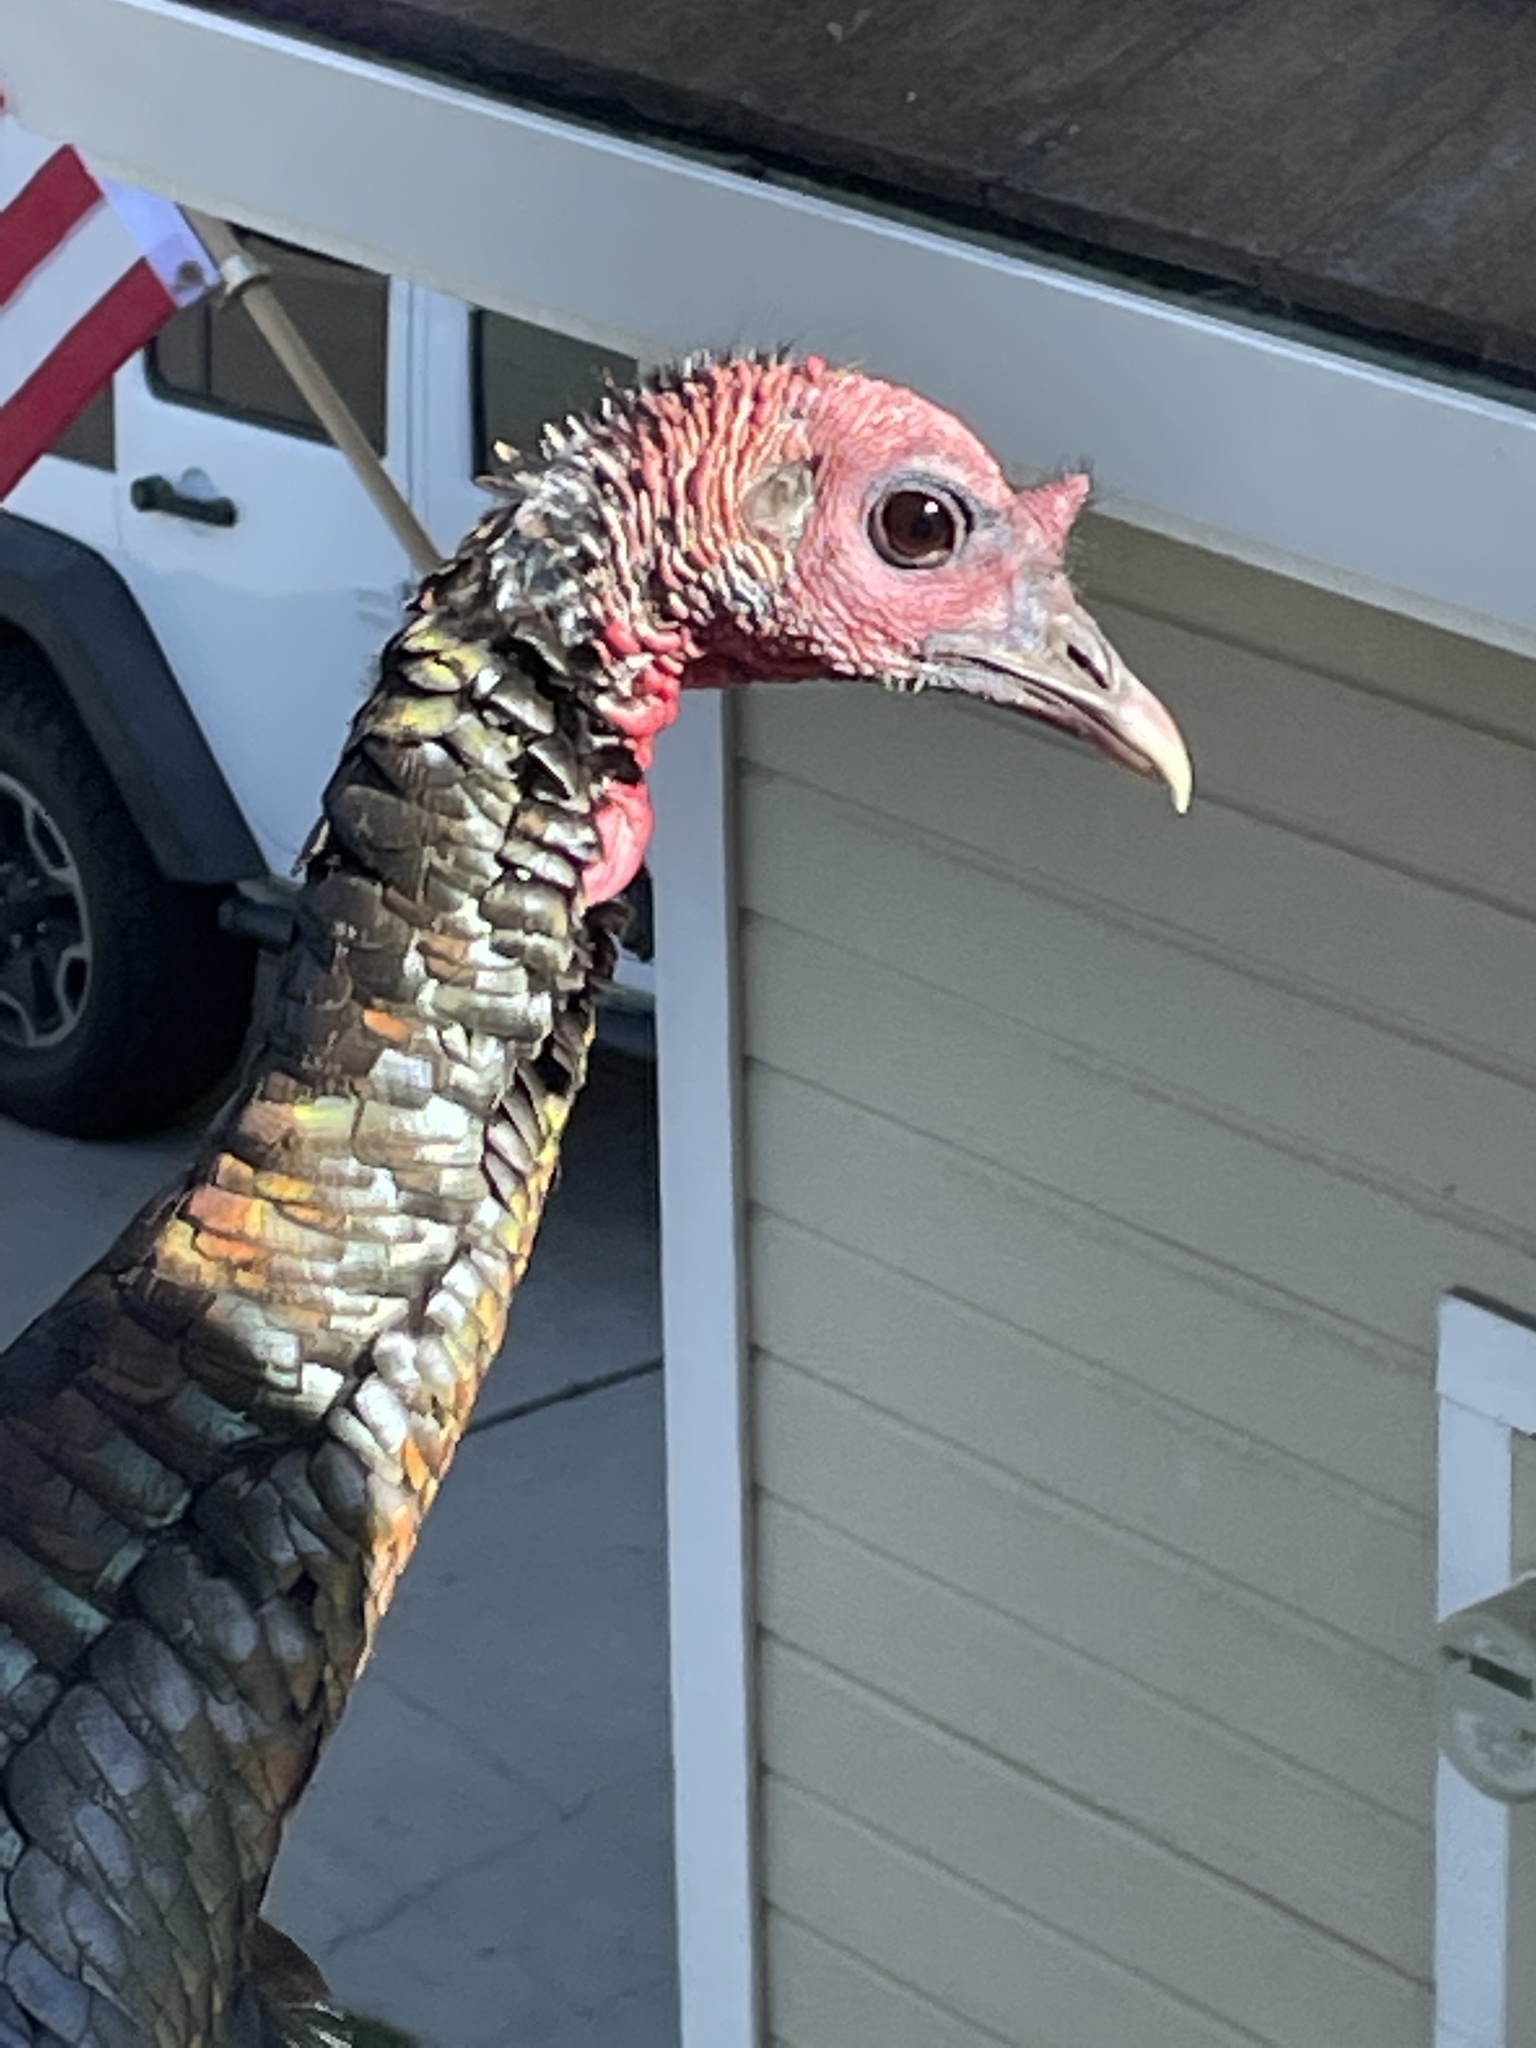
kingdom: Animalia
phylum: Chordata
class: Aves
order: Galliformes
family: Phasianidae
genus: Meleagris
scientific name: Meleagris gallopavo
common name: Wild turkey
